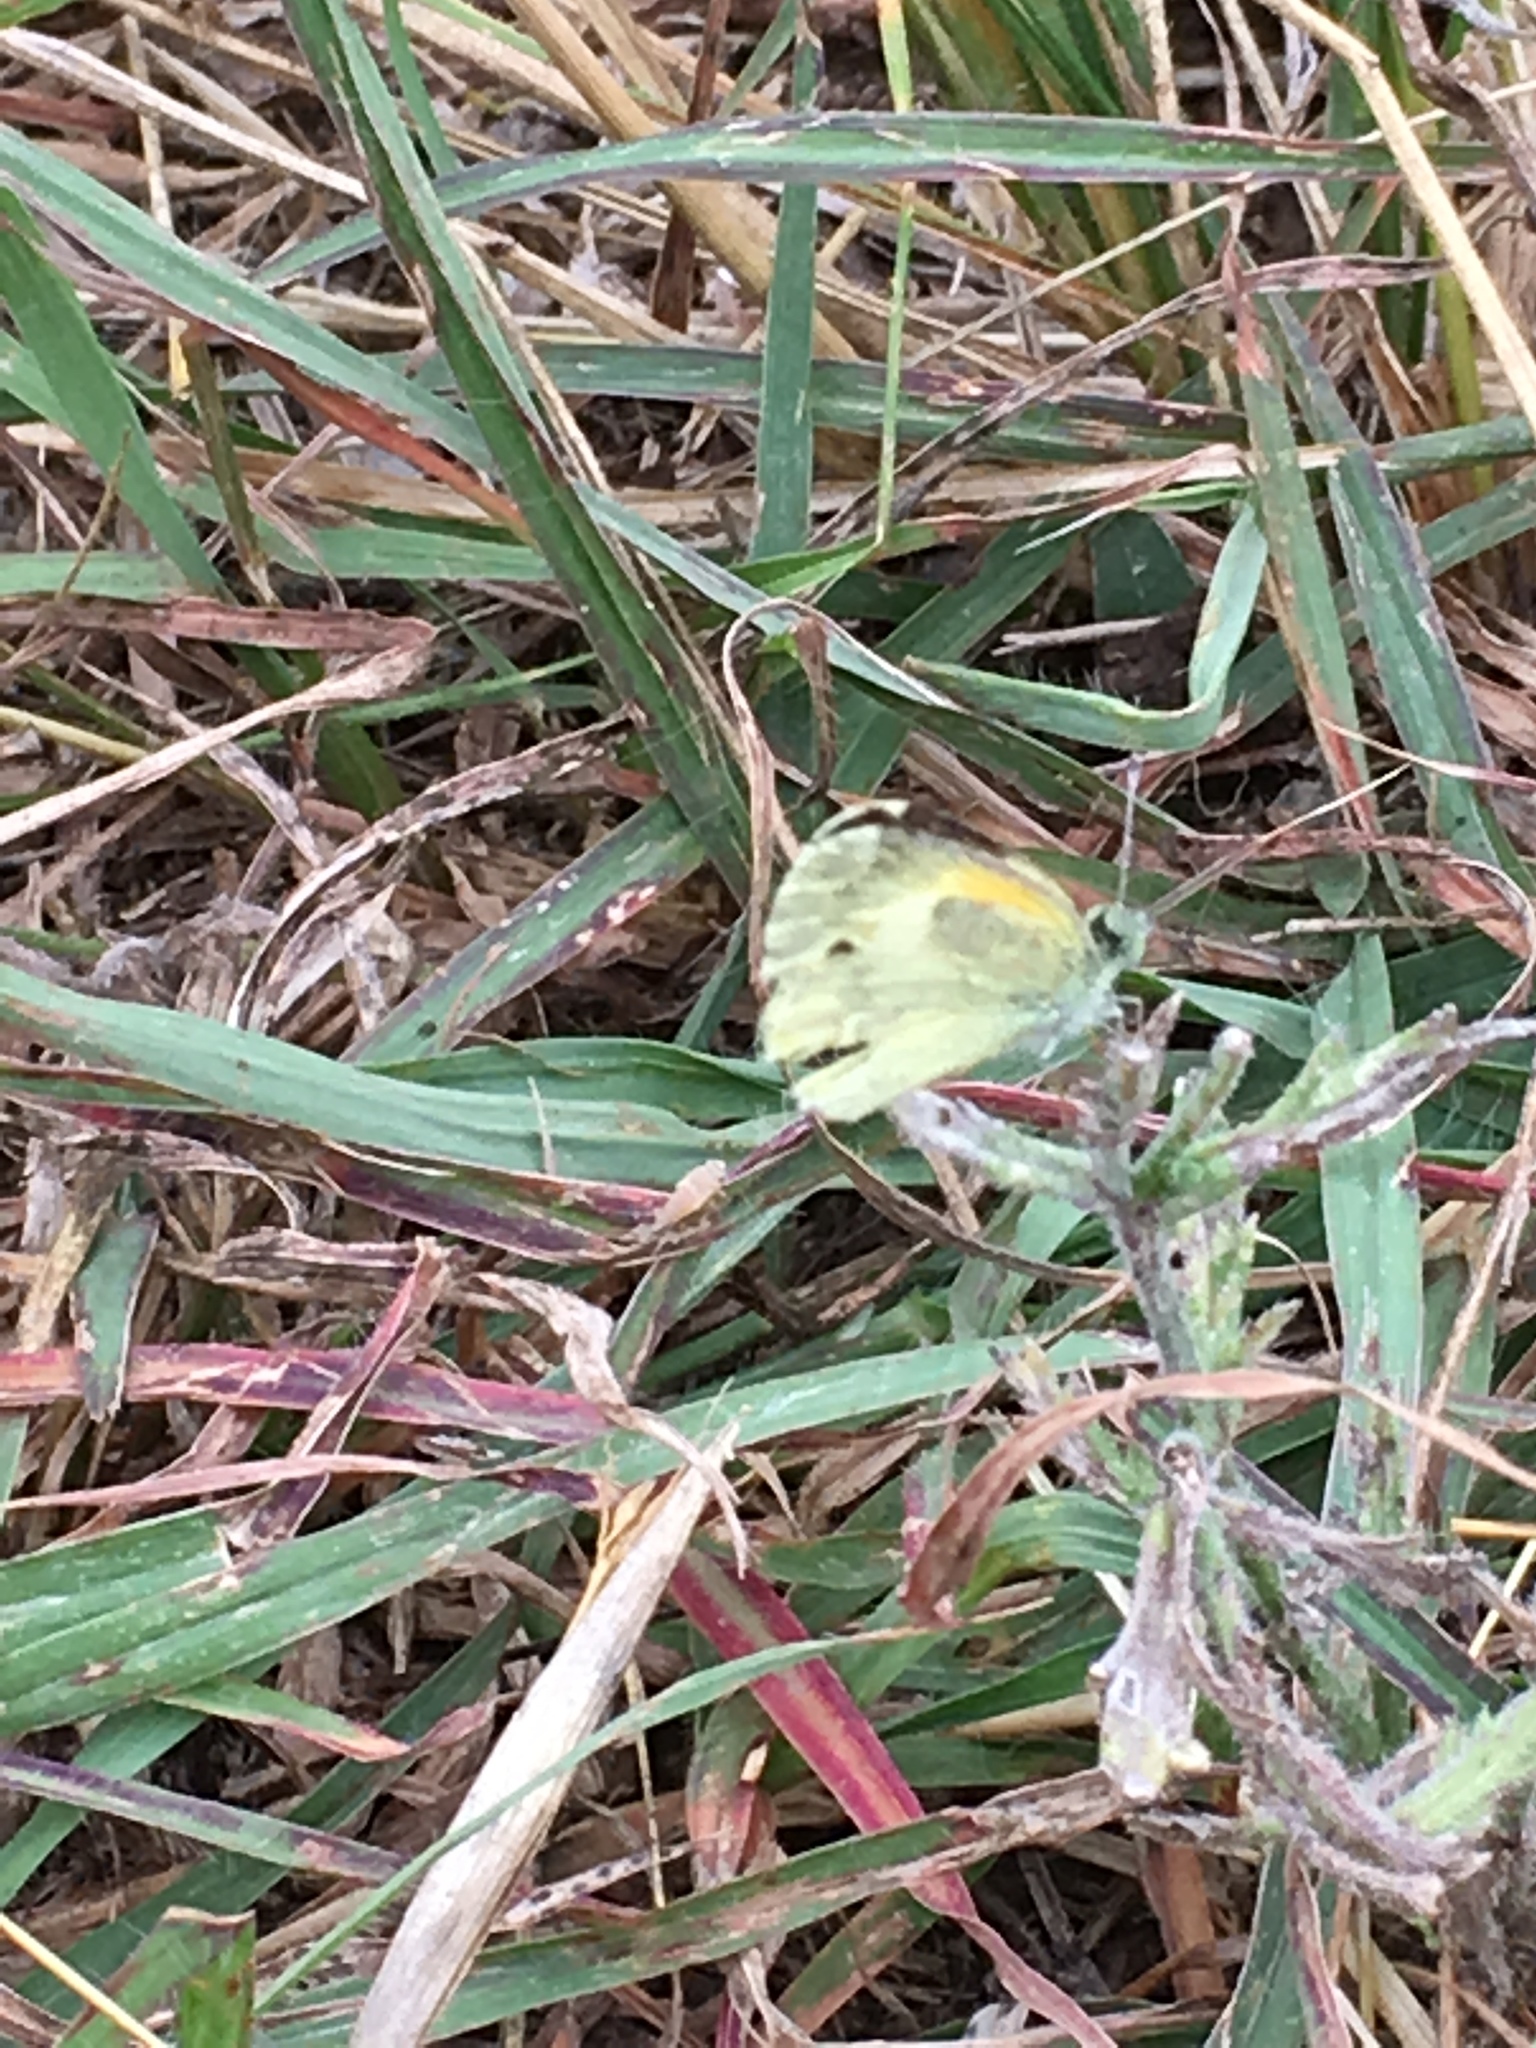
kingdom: Animalia
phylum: Arthropoda
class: Insecta
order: Lepidoptera
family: Pieridae
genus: Nathalis
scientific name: Nathalis iole
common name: Dainty sulphur
